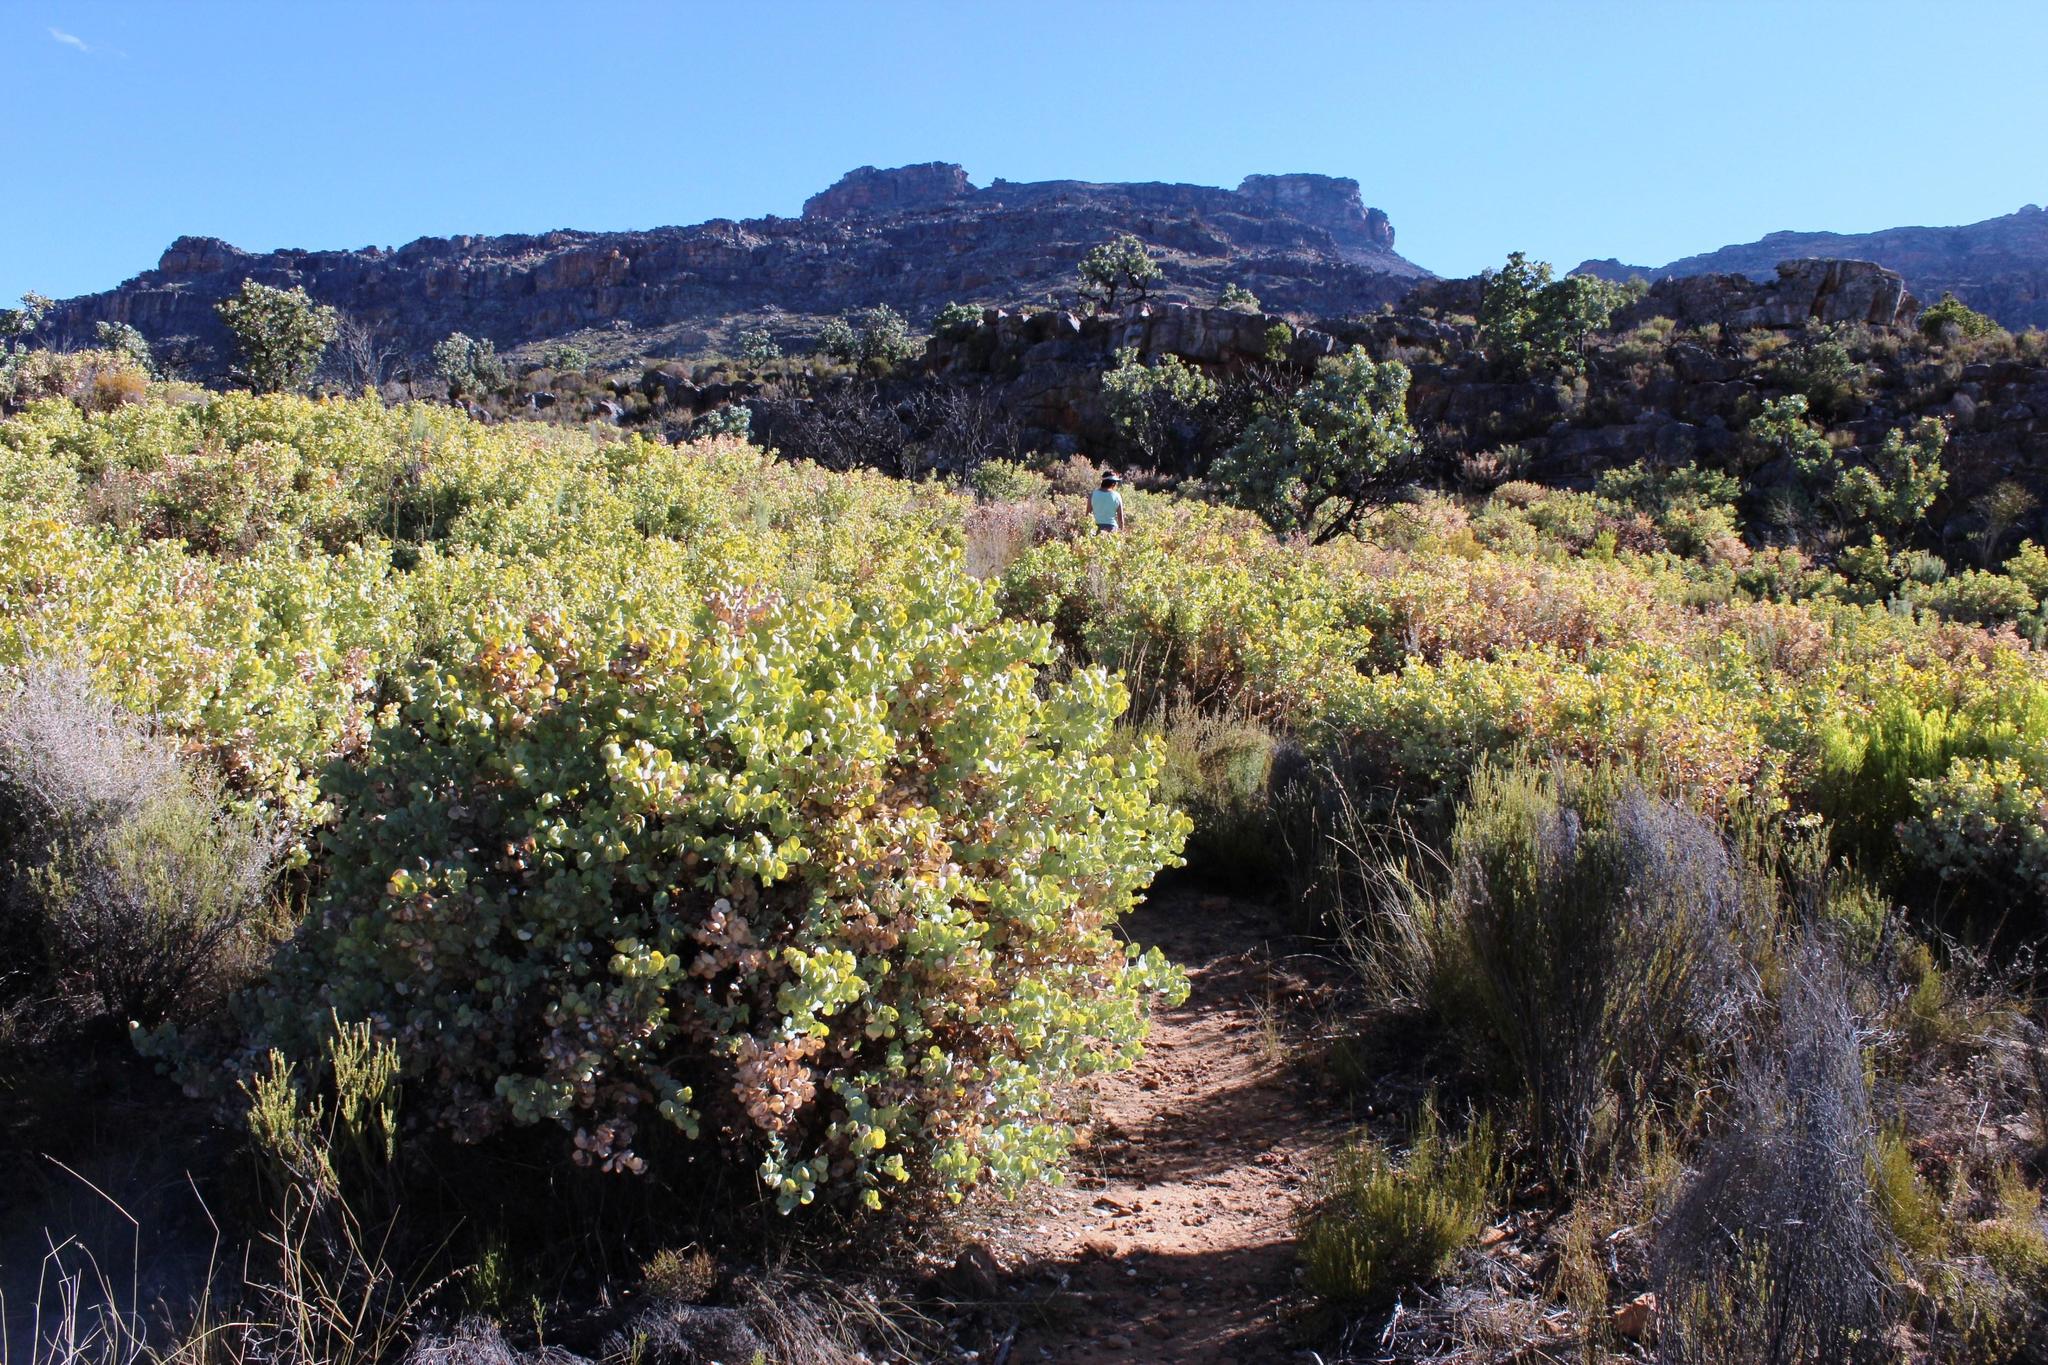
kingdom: Plantae
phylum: Tracheophyta
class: Magnoliopsida
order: Fabales
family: Fabaceae
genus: Rafnia
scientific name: Rafnia amplexicaulis
